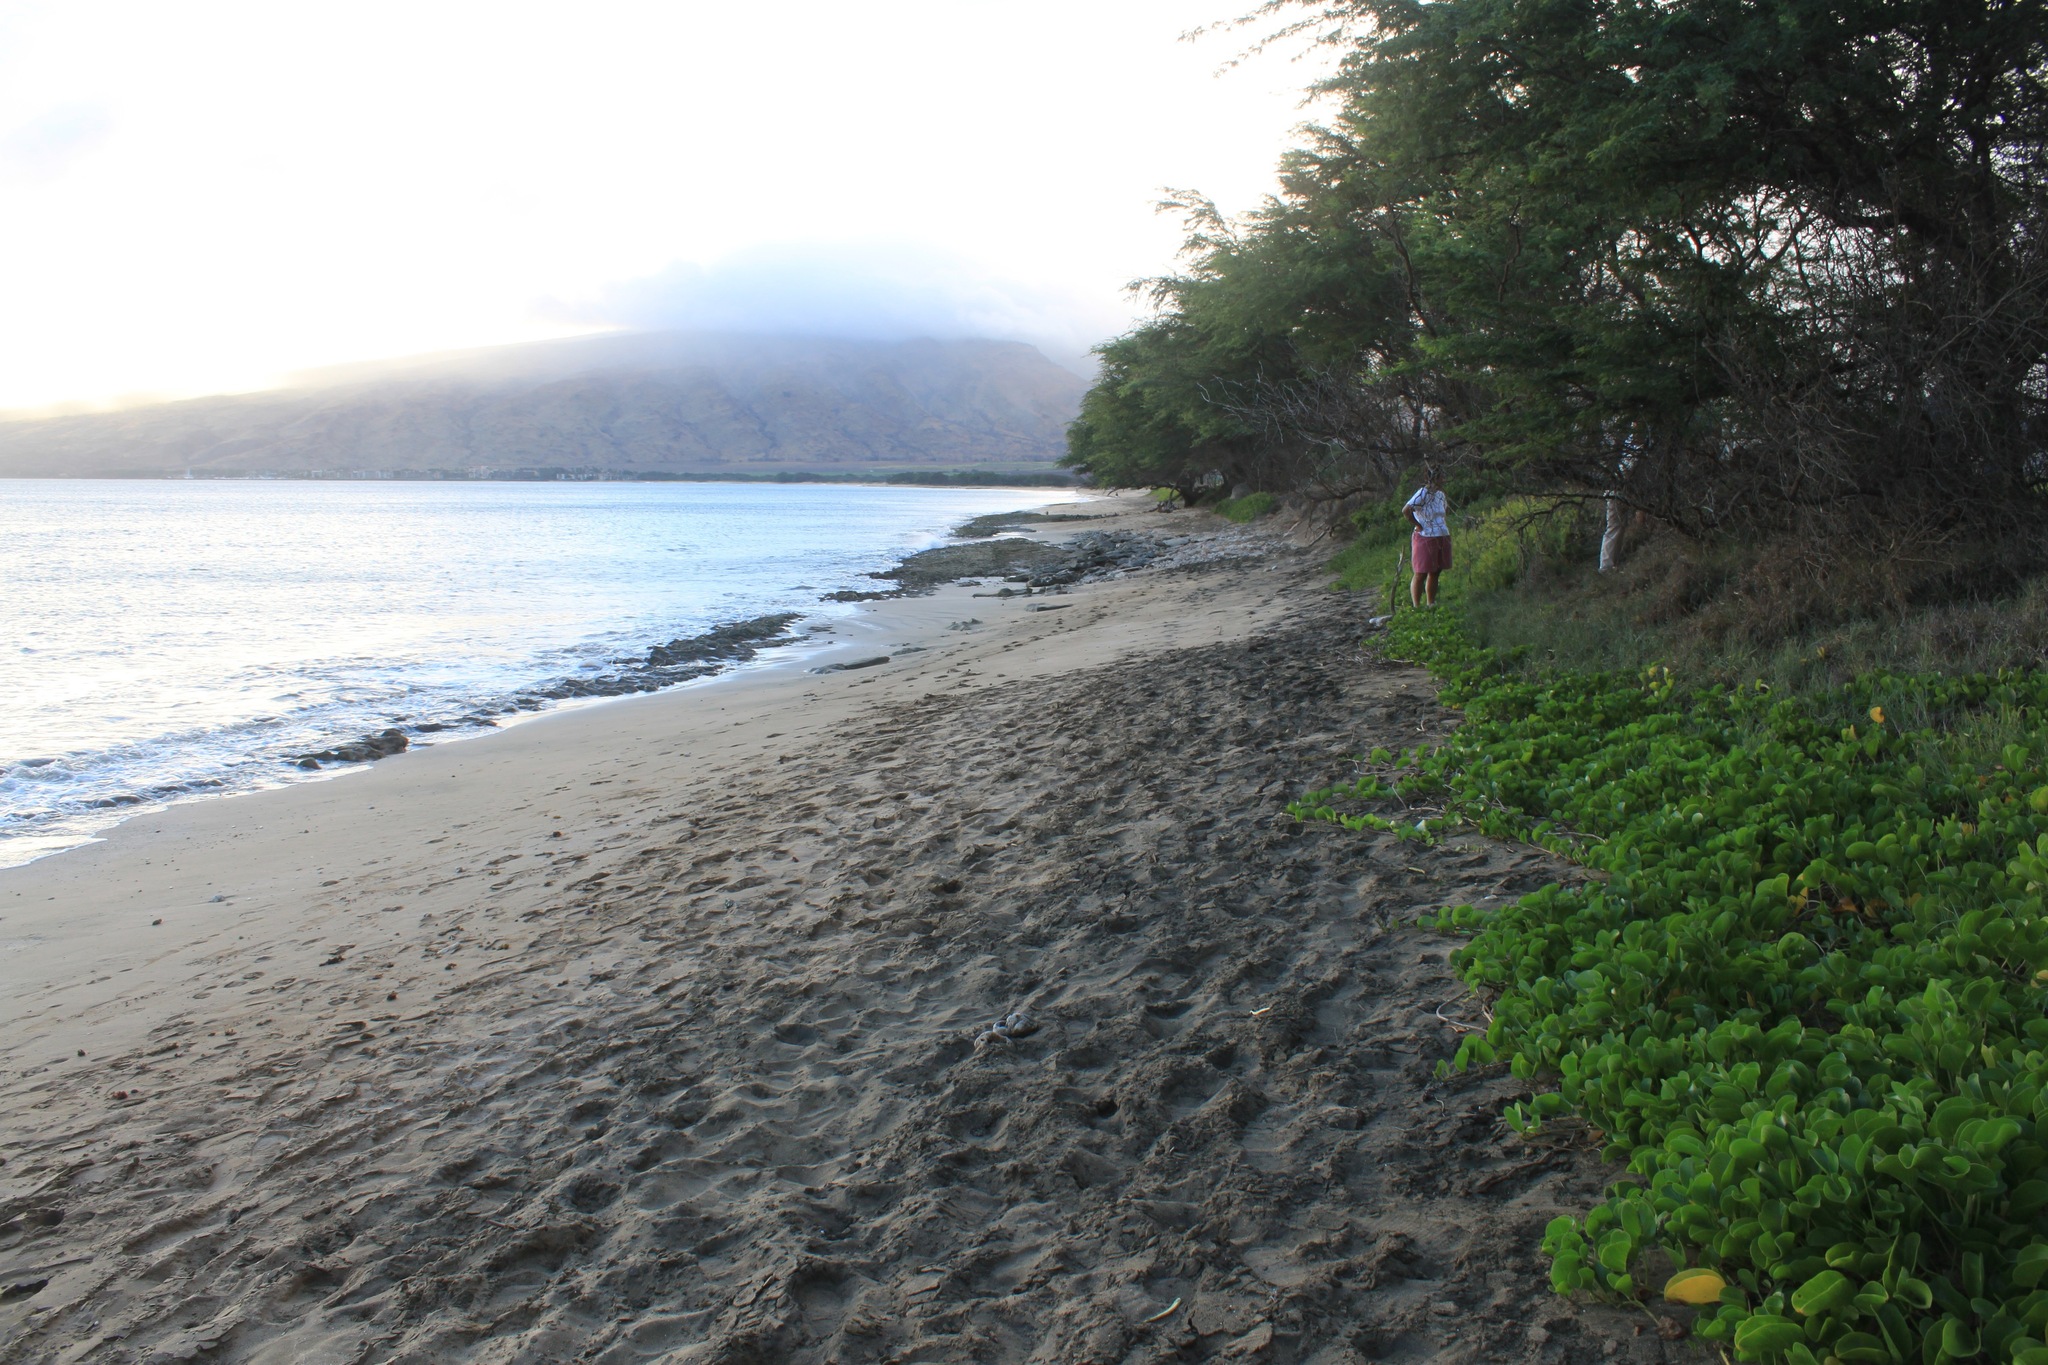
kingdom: Plantae
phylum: Tracheophyta
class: Magnoliopsida
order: Solanales
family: Convolvulaceae
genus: Ipomoea
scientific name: Ipomoea pes-caprae
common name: Beach morning glory
